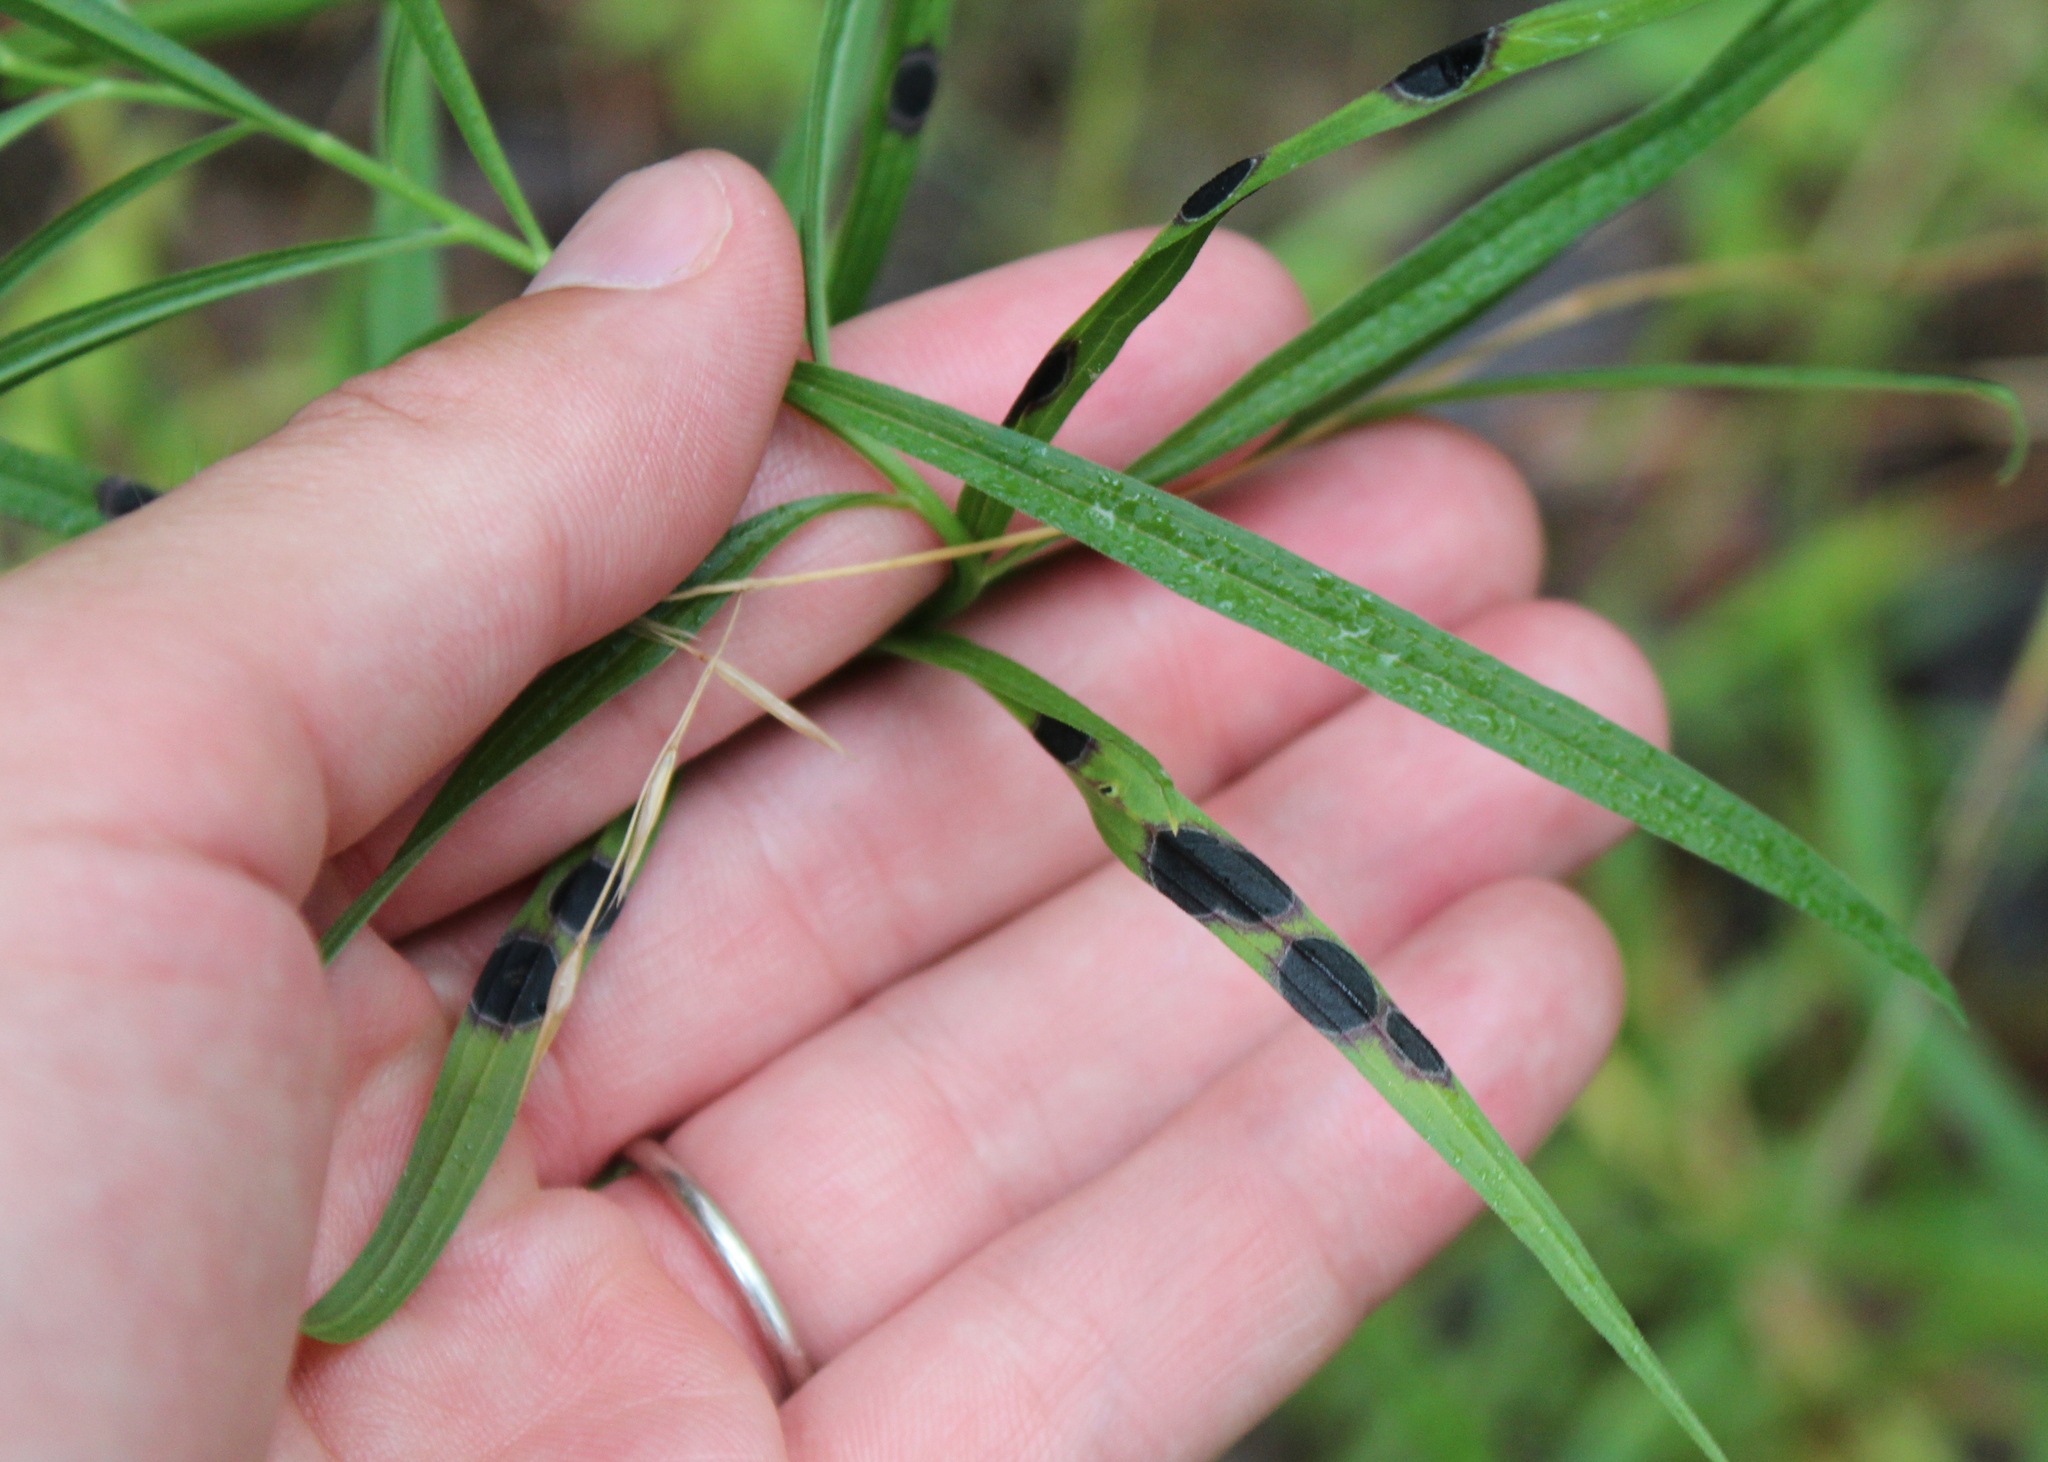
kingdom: Animalia
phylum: Arthropoda
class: Insecta
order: Diptera
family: Cecidomyiidae
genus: Asteromyia
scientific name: Asteromyia euthamiae
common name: Euthamia leaf gall midge
